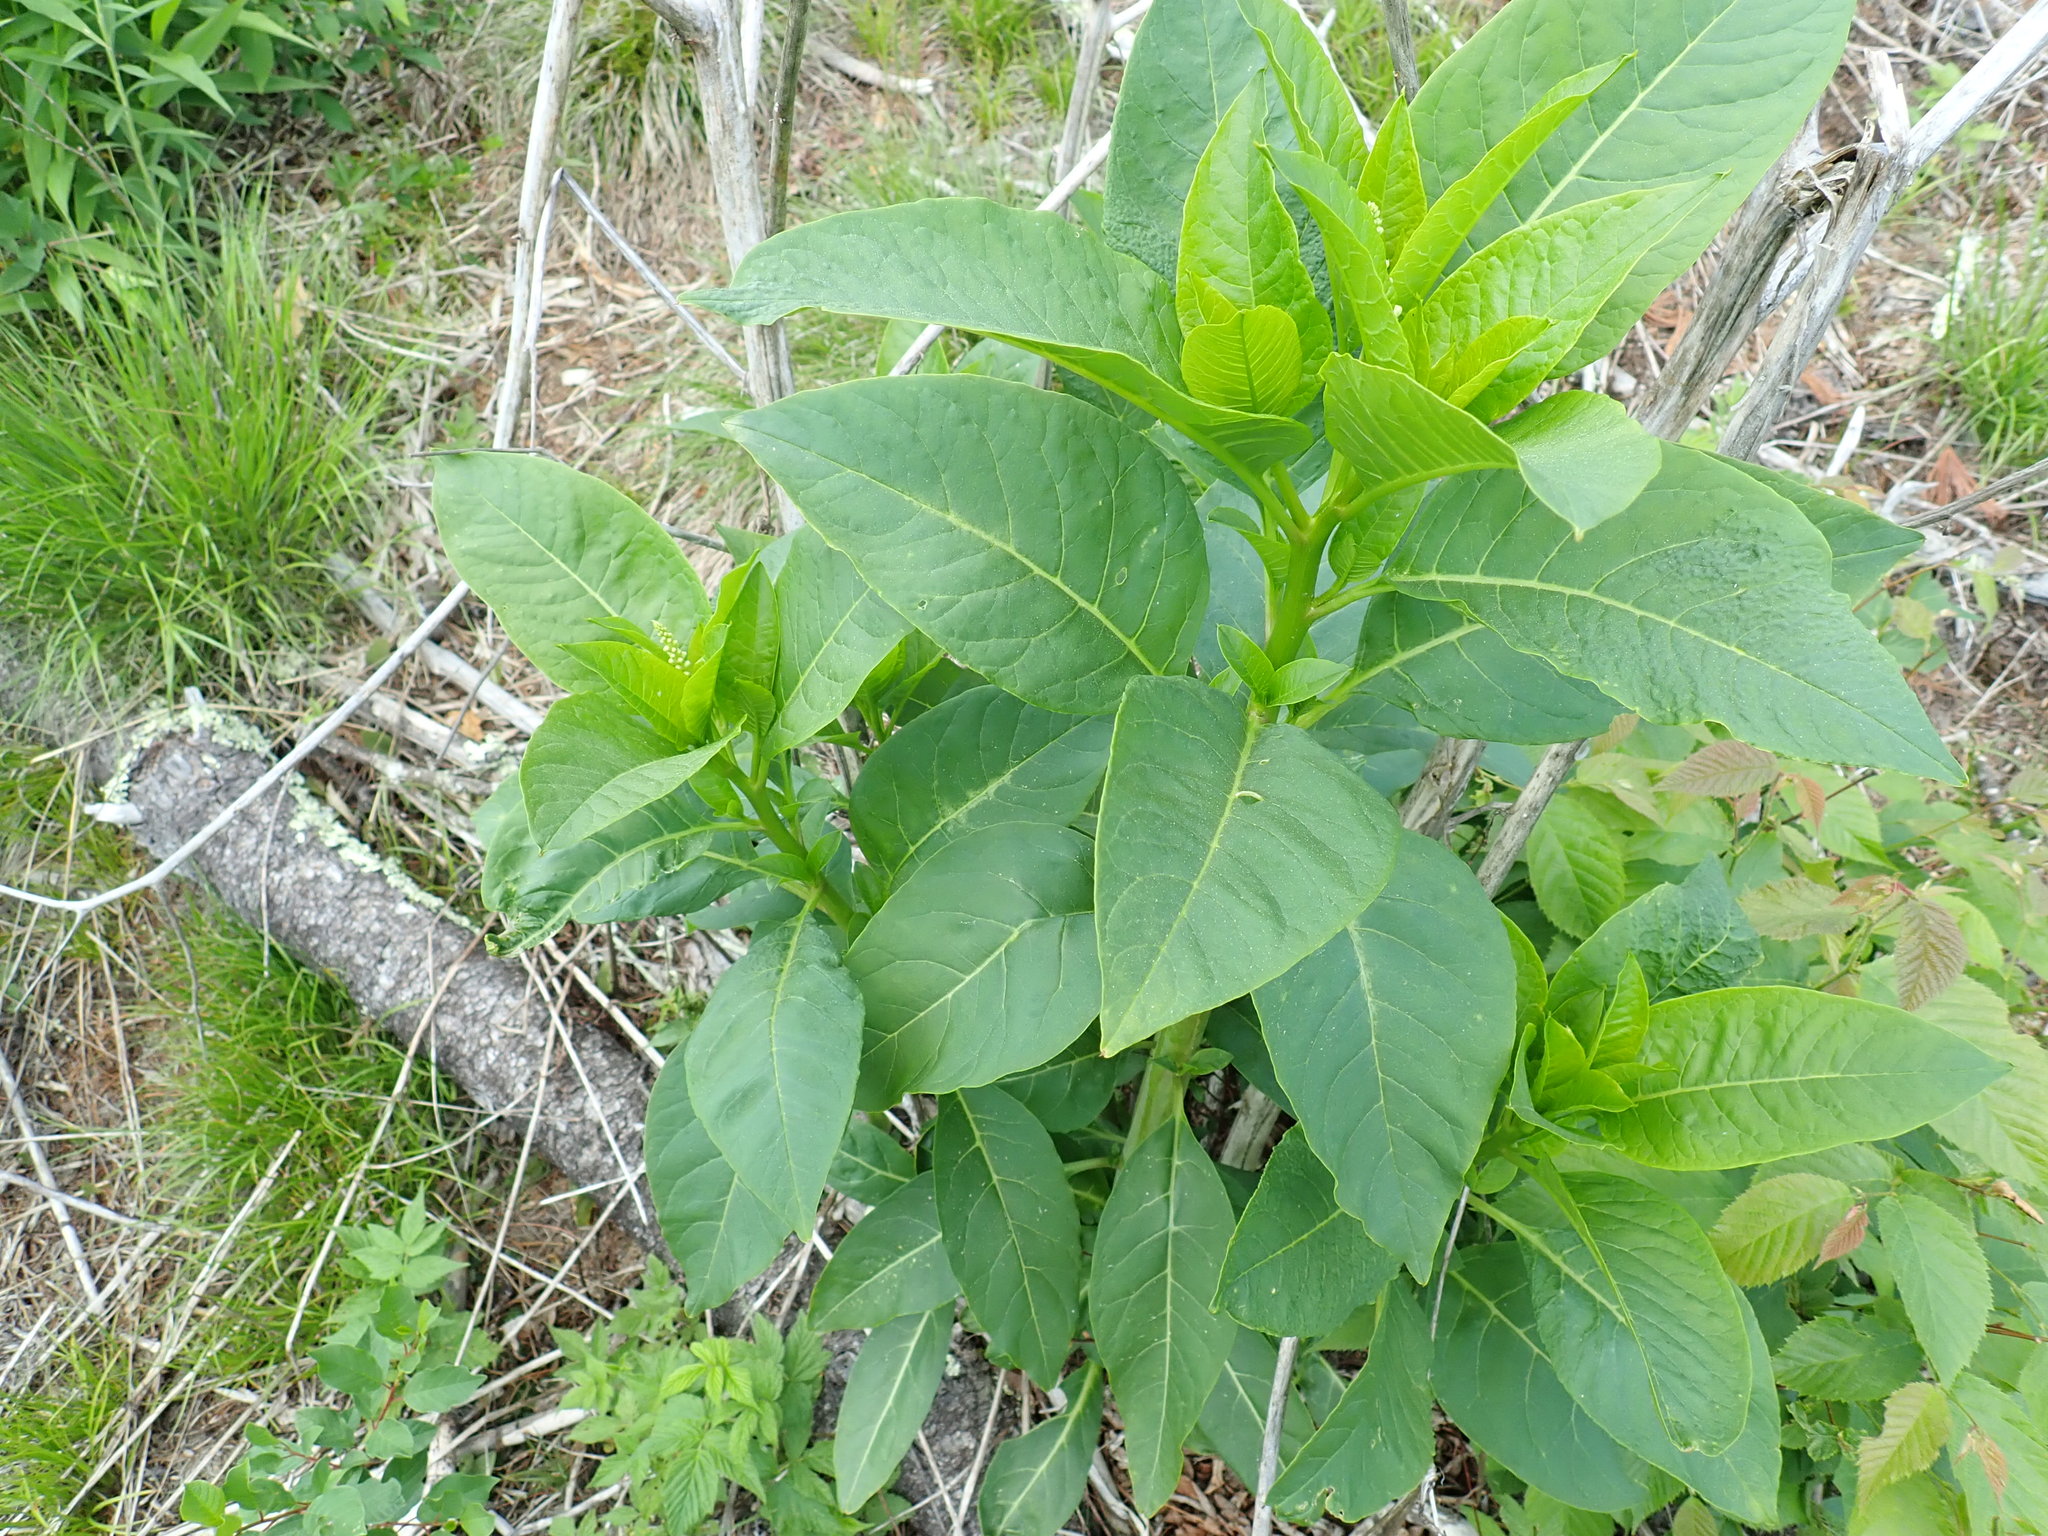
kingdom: Plantae
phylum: Tracheophyta
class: Magnoliopsida
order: Caryophyllales
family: Phytolaccaceae
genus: Phytolacca
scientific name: Phytolacca americana
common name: American pokeweed
